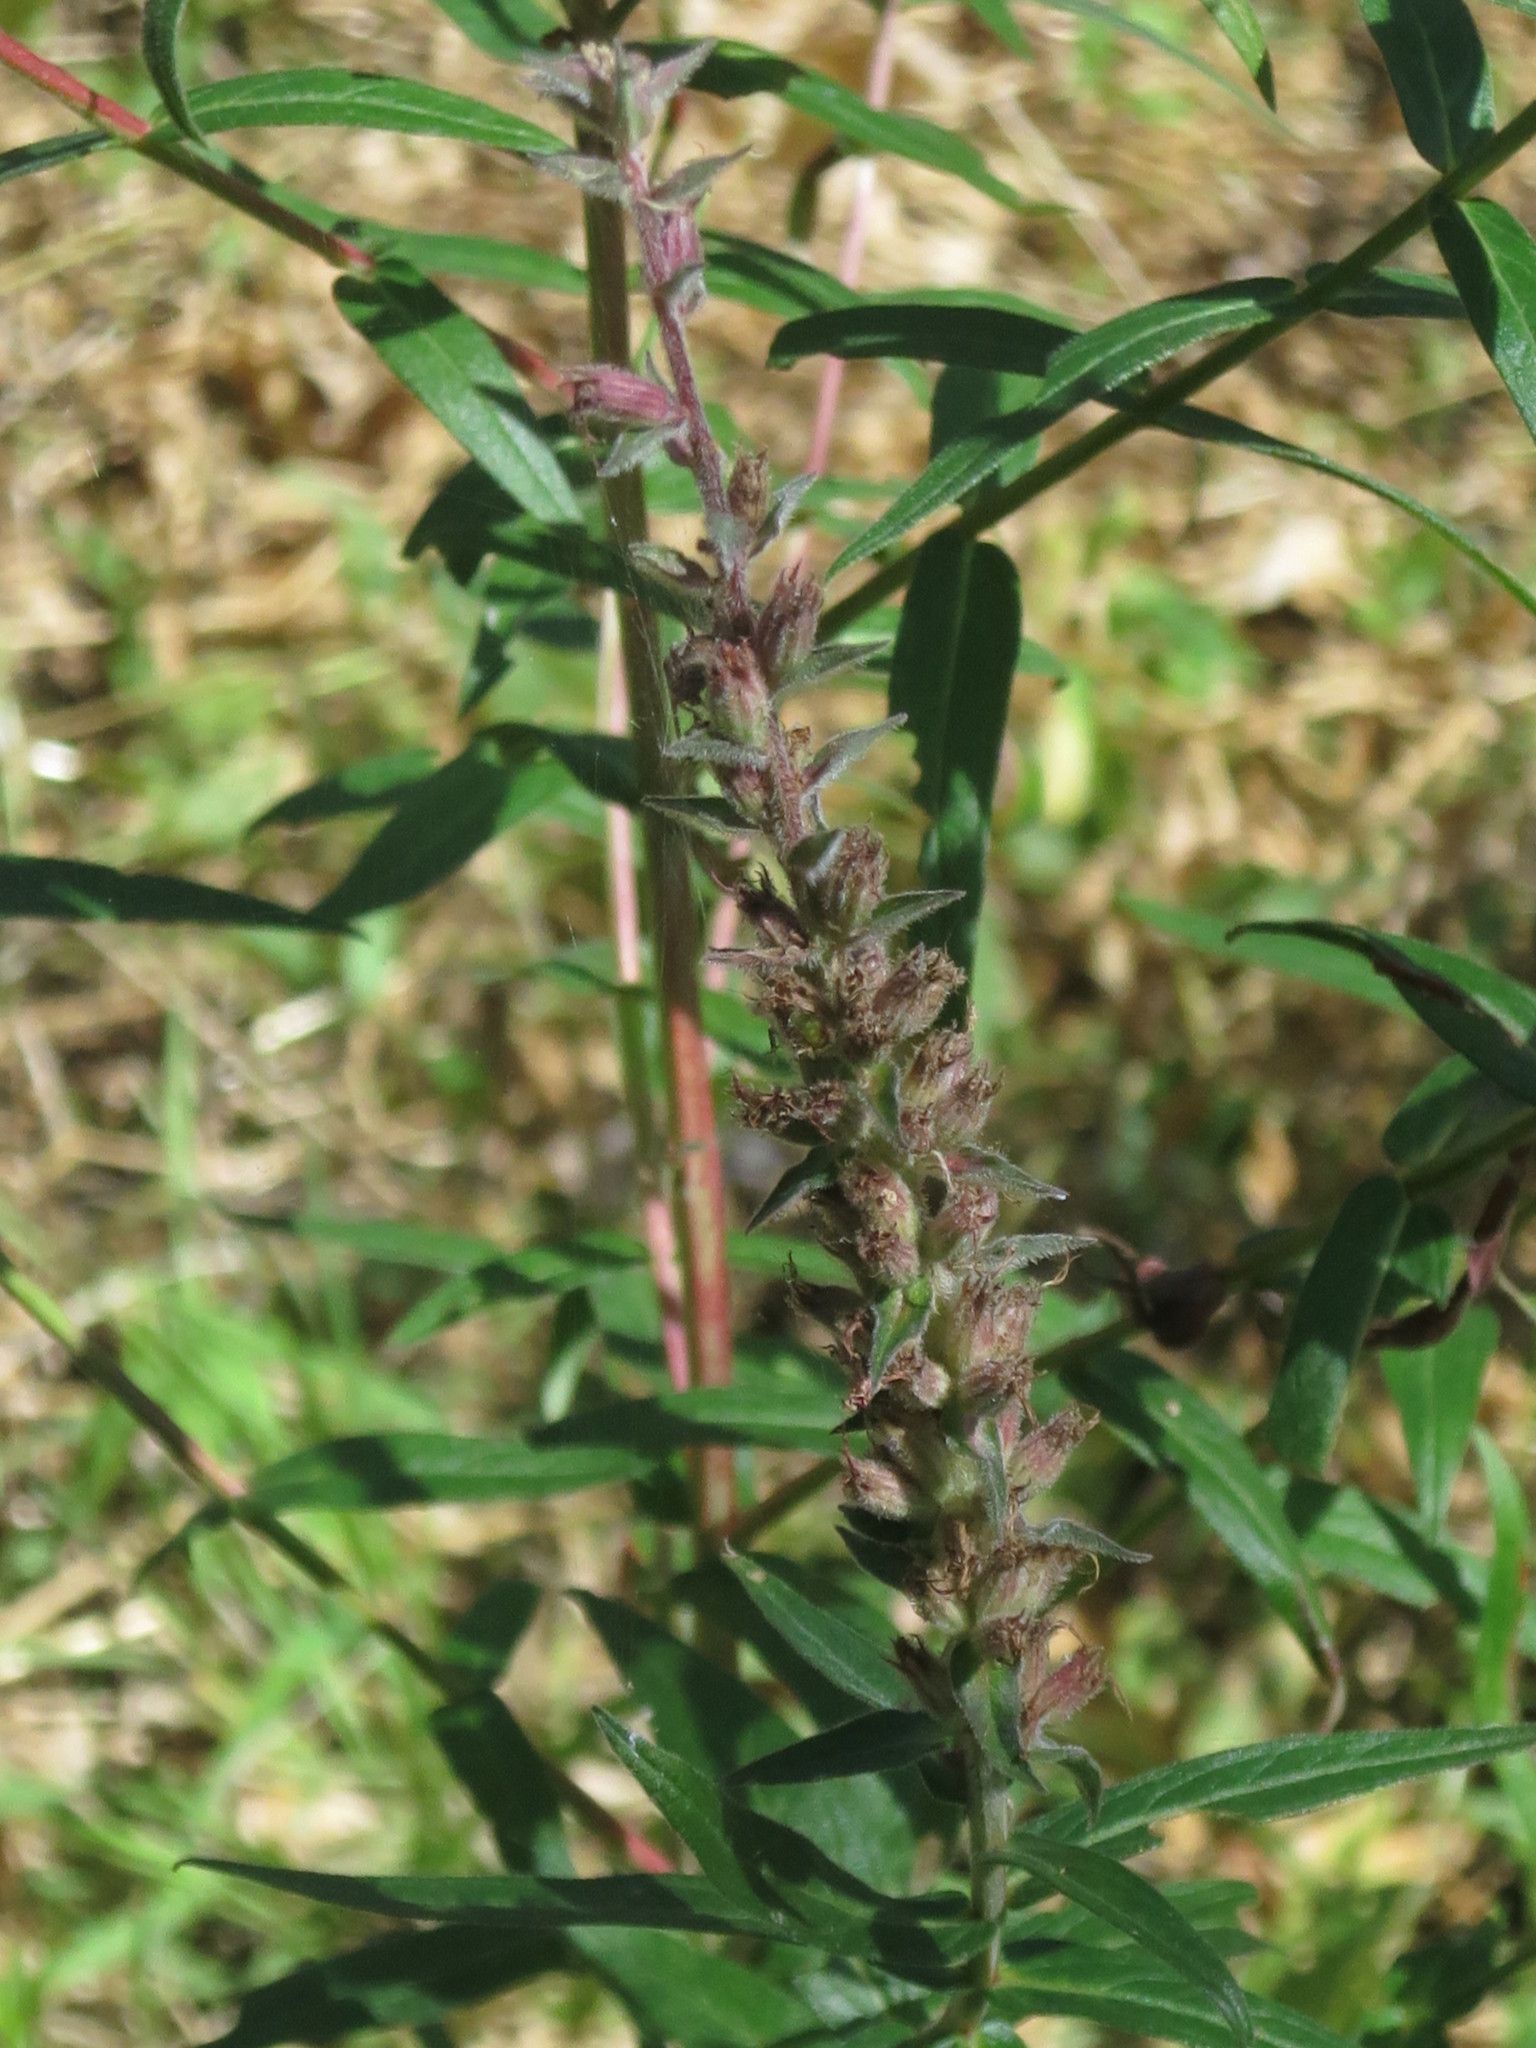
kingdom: Plantae
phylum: Tracheophyta
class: Magnoliopsida
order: Myrtales
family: Lythraceae
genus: Lythrum
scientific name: Lythrum salicaria
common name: Purple loosestrife
